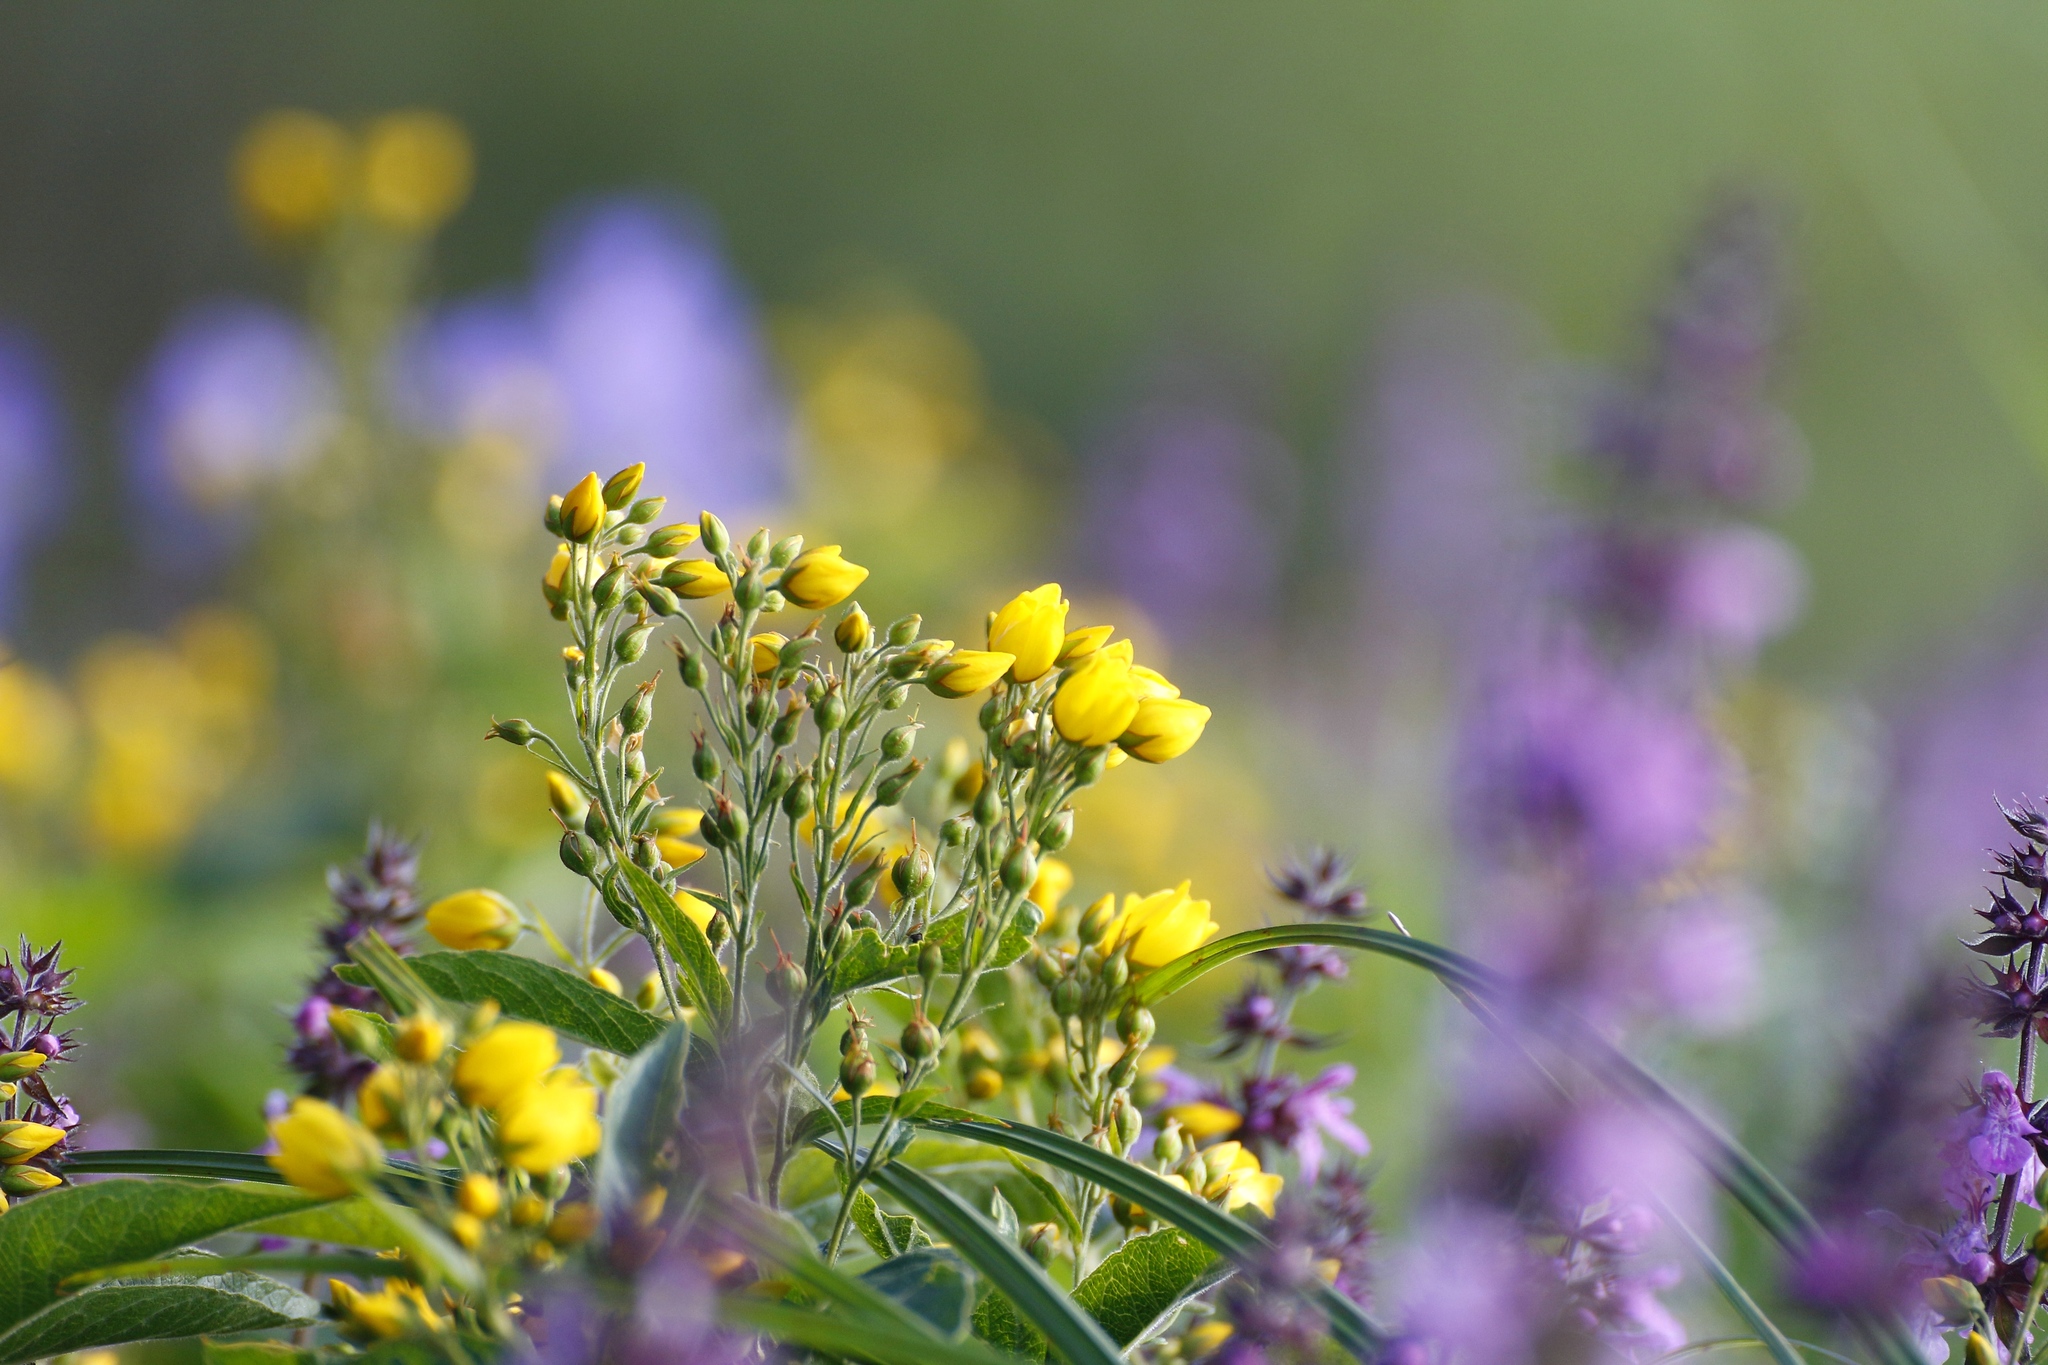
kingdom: Plantae
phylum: Tracheophyta
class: Magnoliopsida
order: Ericales
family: Primulaceae
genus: Lysimachia
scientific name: Lysimachia vulgaris
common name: Yellow loosestrife
